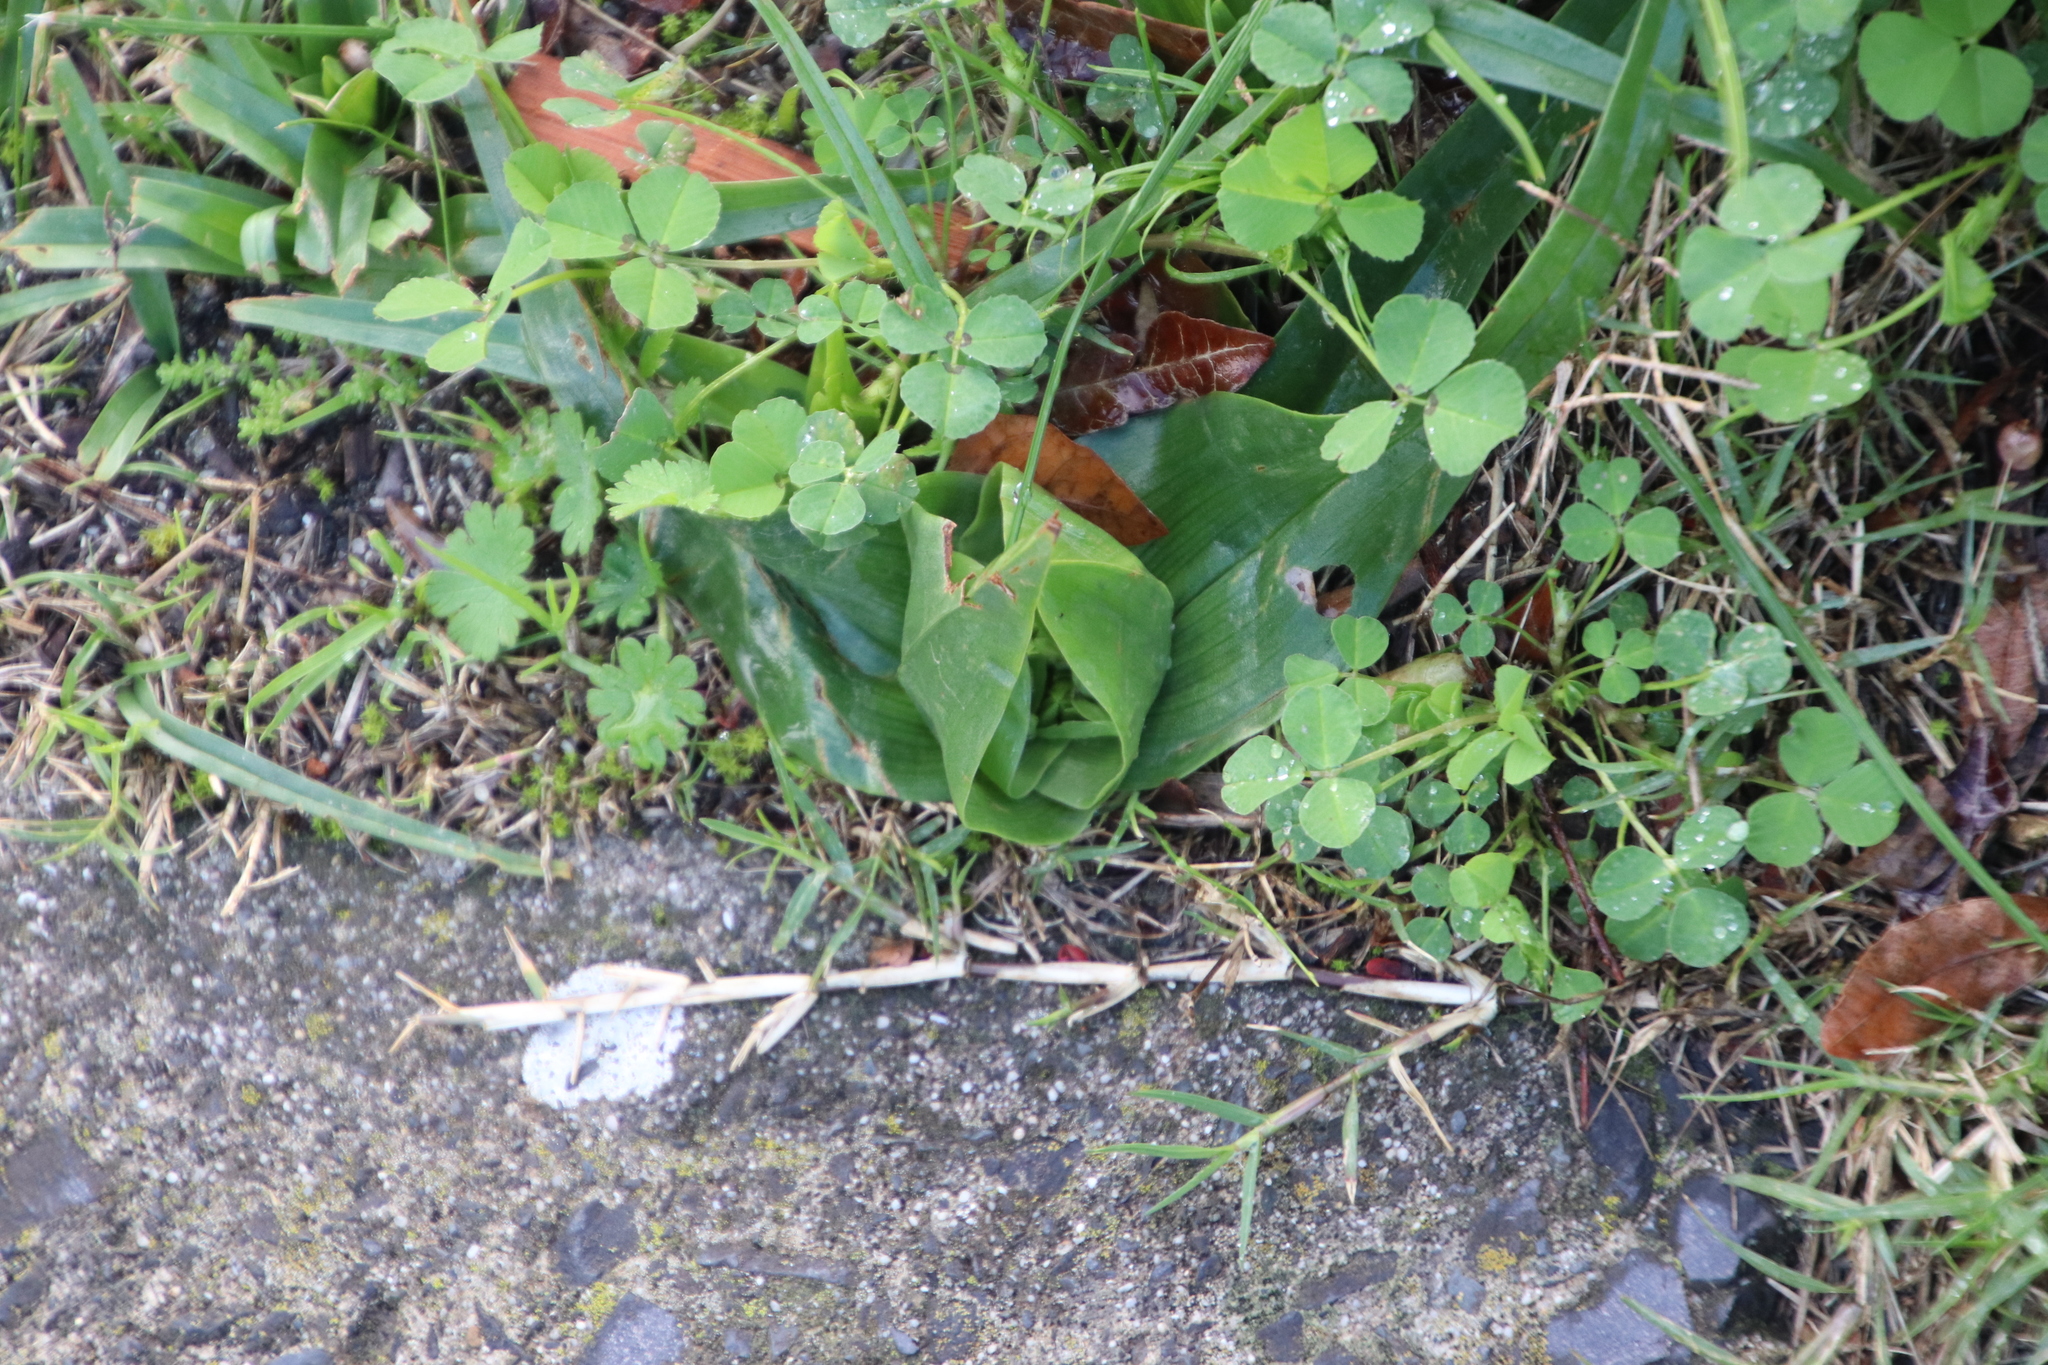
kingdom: Plantae
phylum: Tracheophyta
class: Liliopsida
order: Liliales
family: Colchicaceae
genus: Colchicum
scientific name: Colchicum eucomoides
